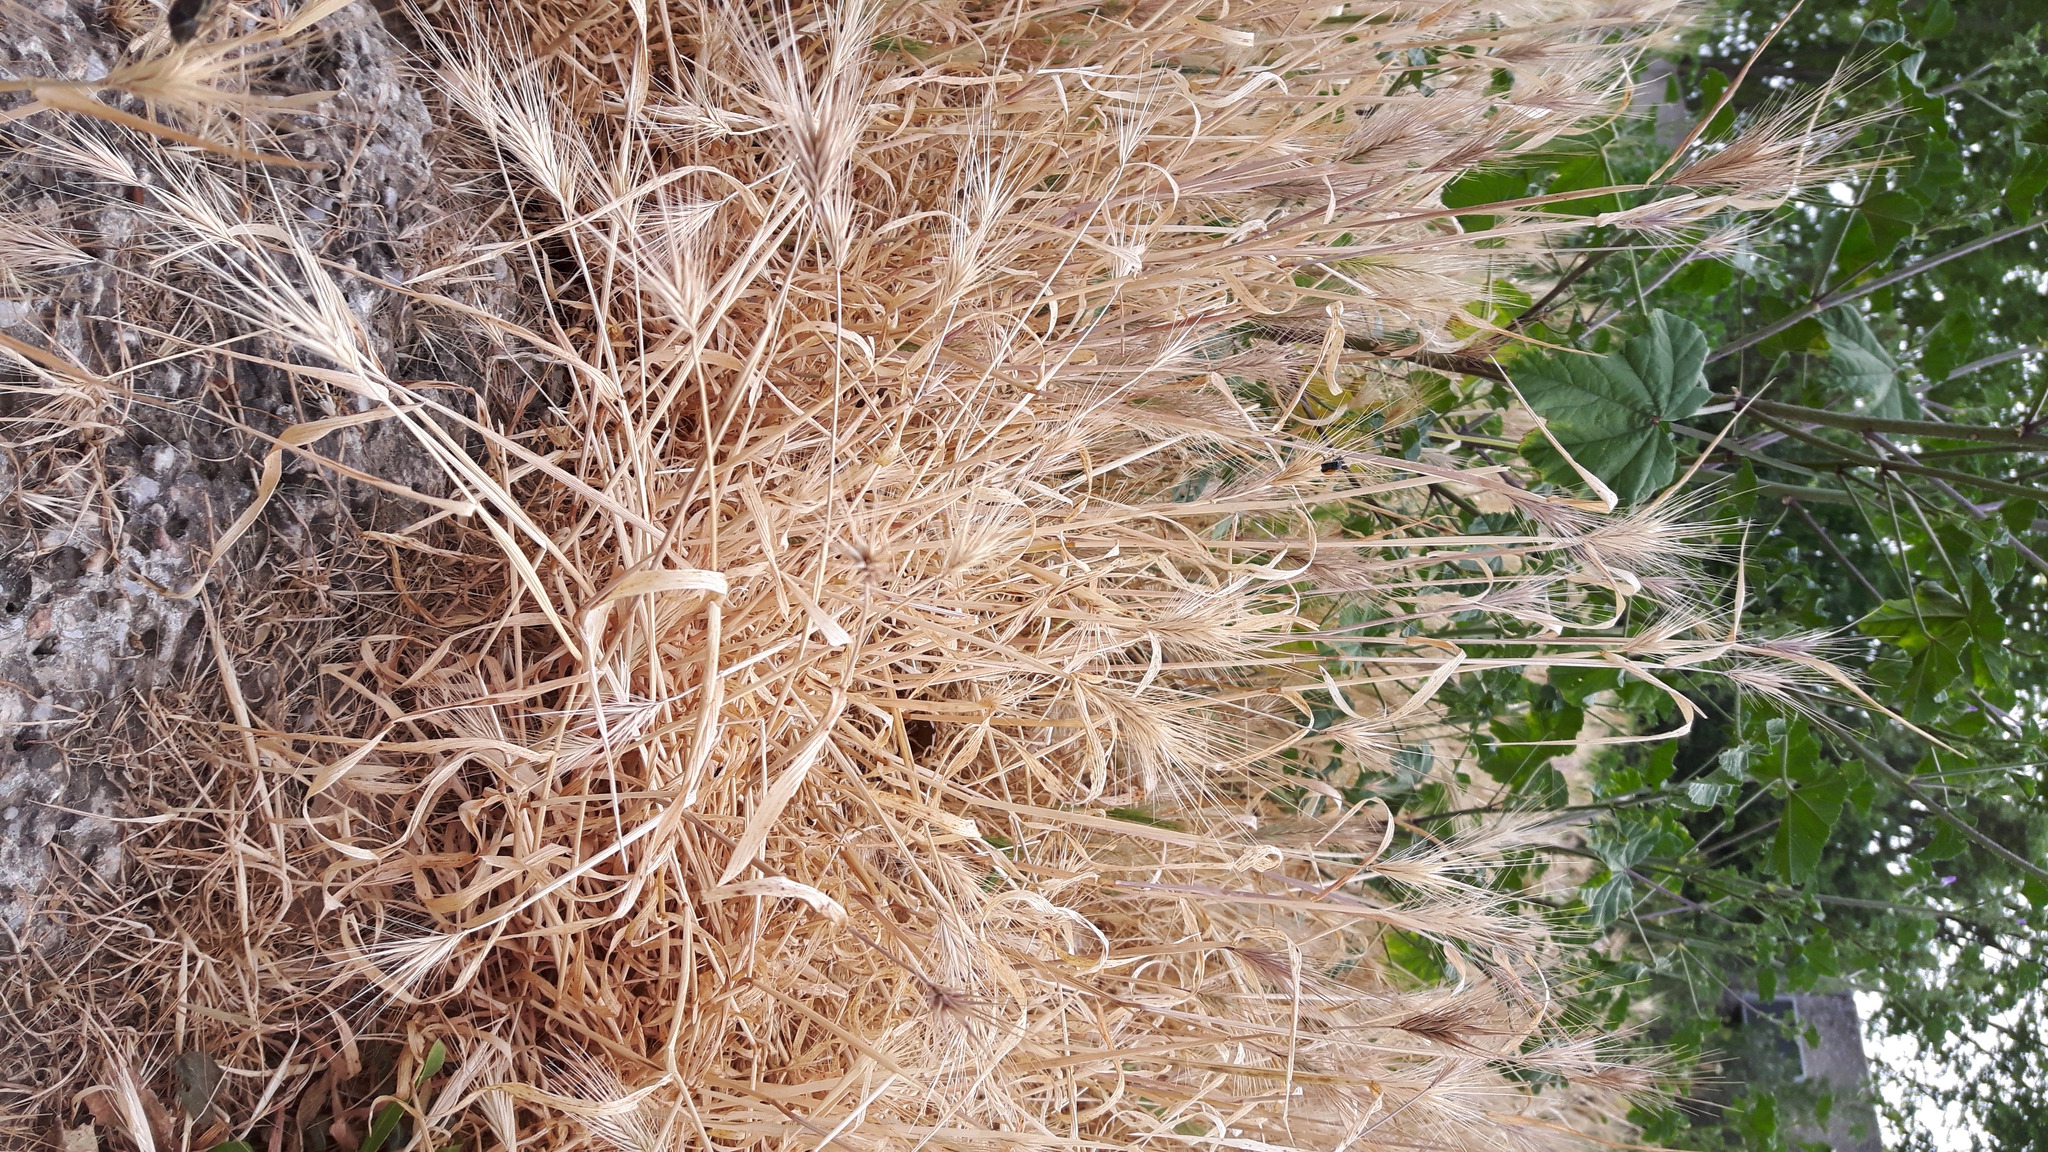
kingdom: Plantae
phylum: Tracheophyta
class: Liliopsida
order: Poales
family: Poaceae
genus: Hordeum
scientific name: Hordeum murinum
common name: Wall barley
